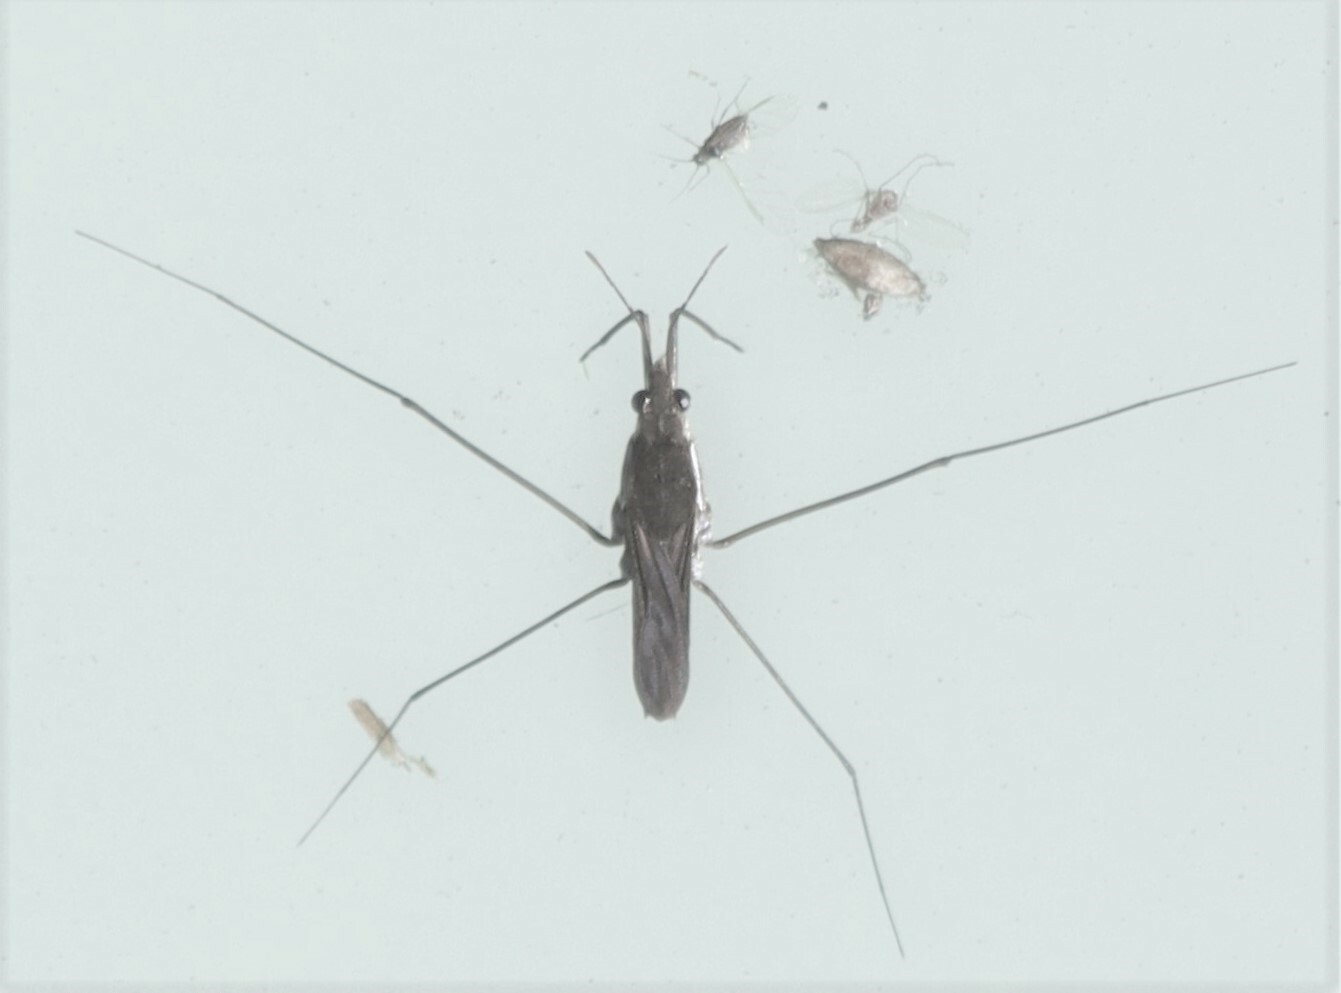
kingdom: Animalia
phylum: Arthropoda
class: Insecta
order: Hemiptera
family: Gerridae
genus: Gerris
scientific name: Gerris swakopensis
